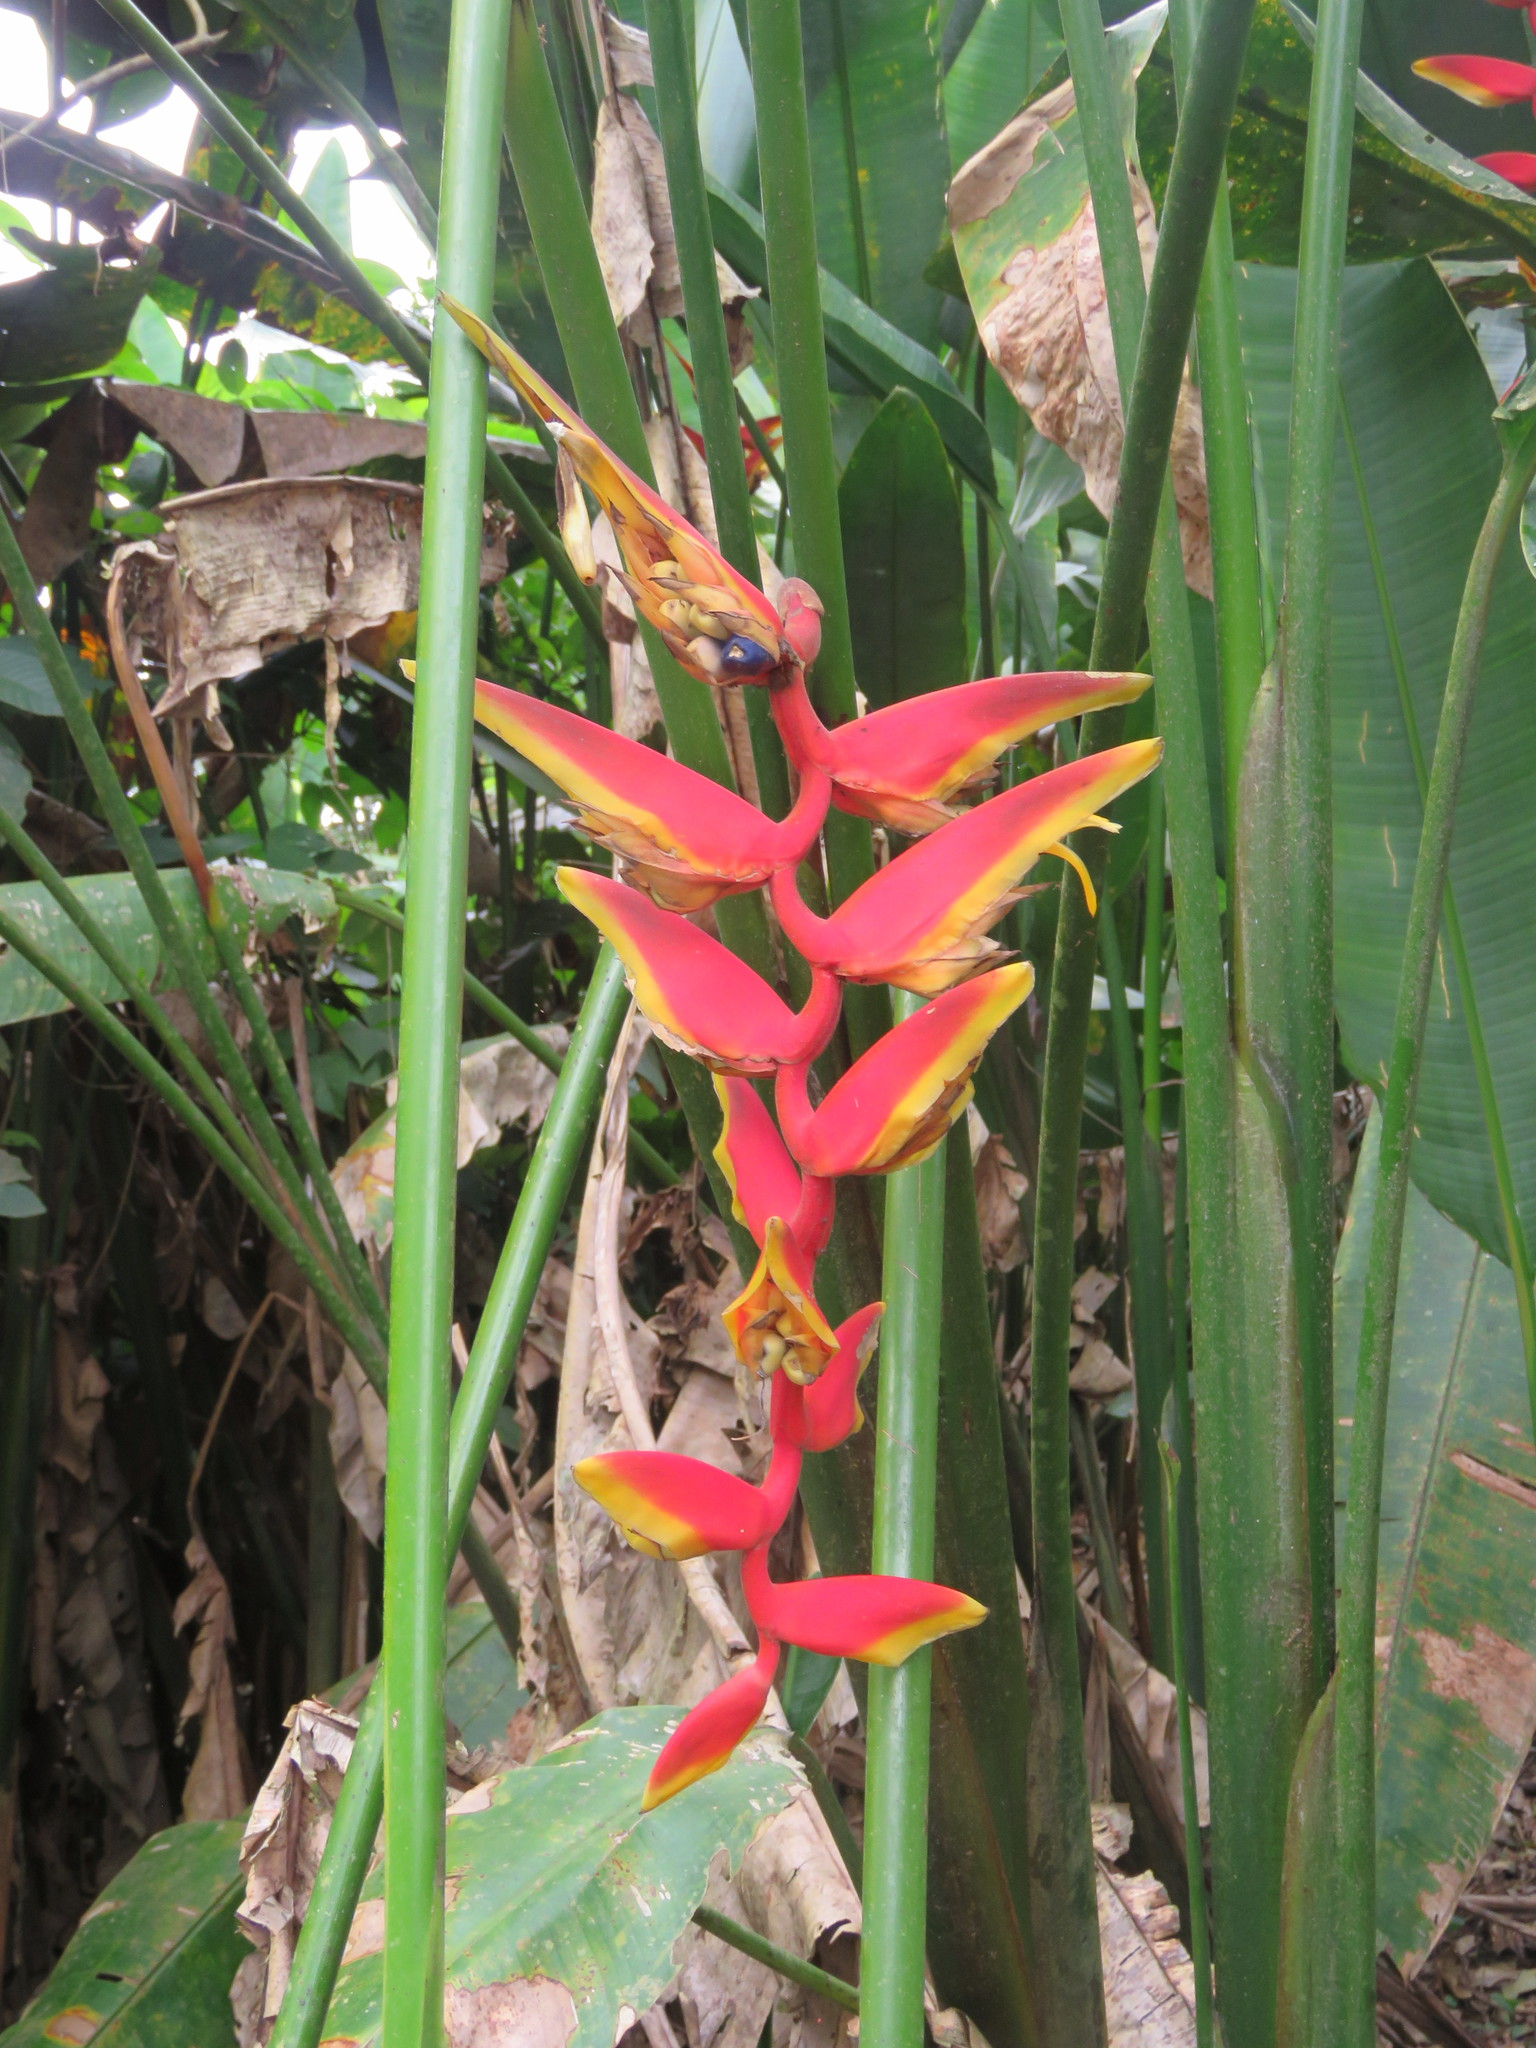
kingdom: Plantae
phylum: Tracheophyta
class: Liliopsida
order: Zingiberales
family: Heliconiaceae
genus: Heliconia
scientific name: Heliconia marginata
